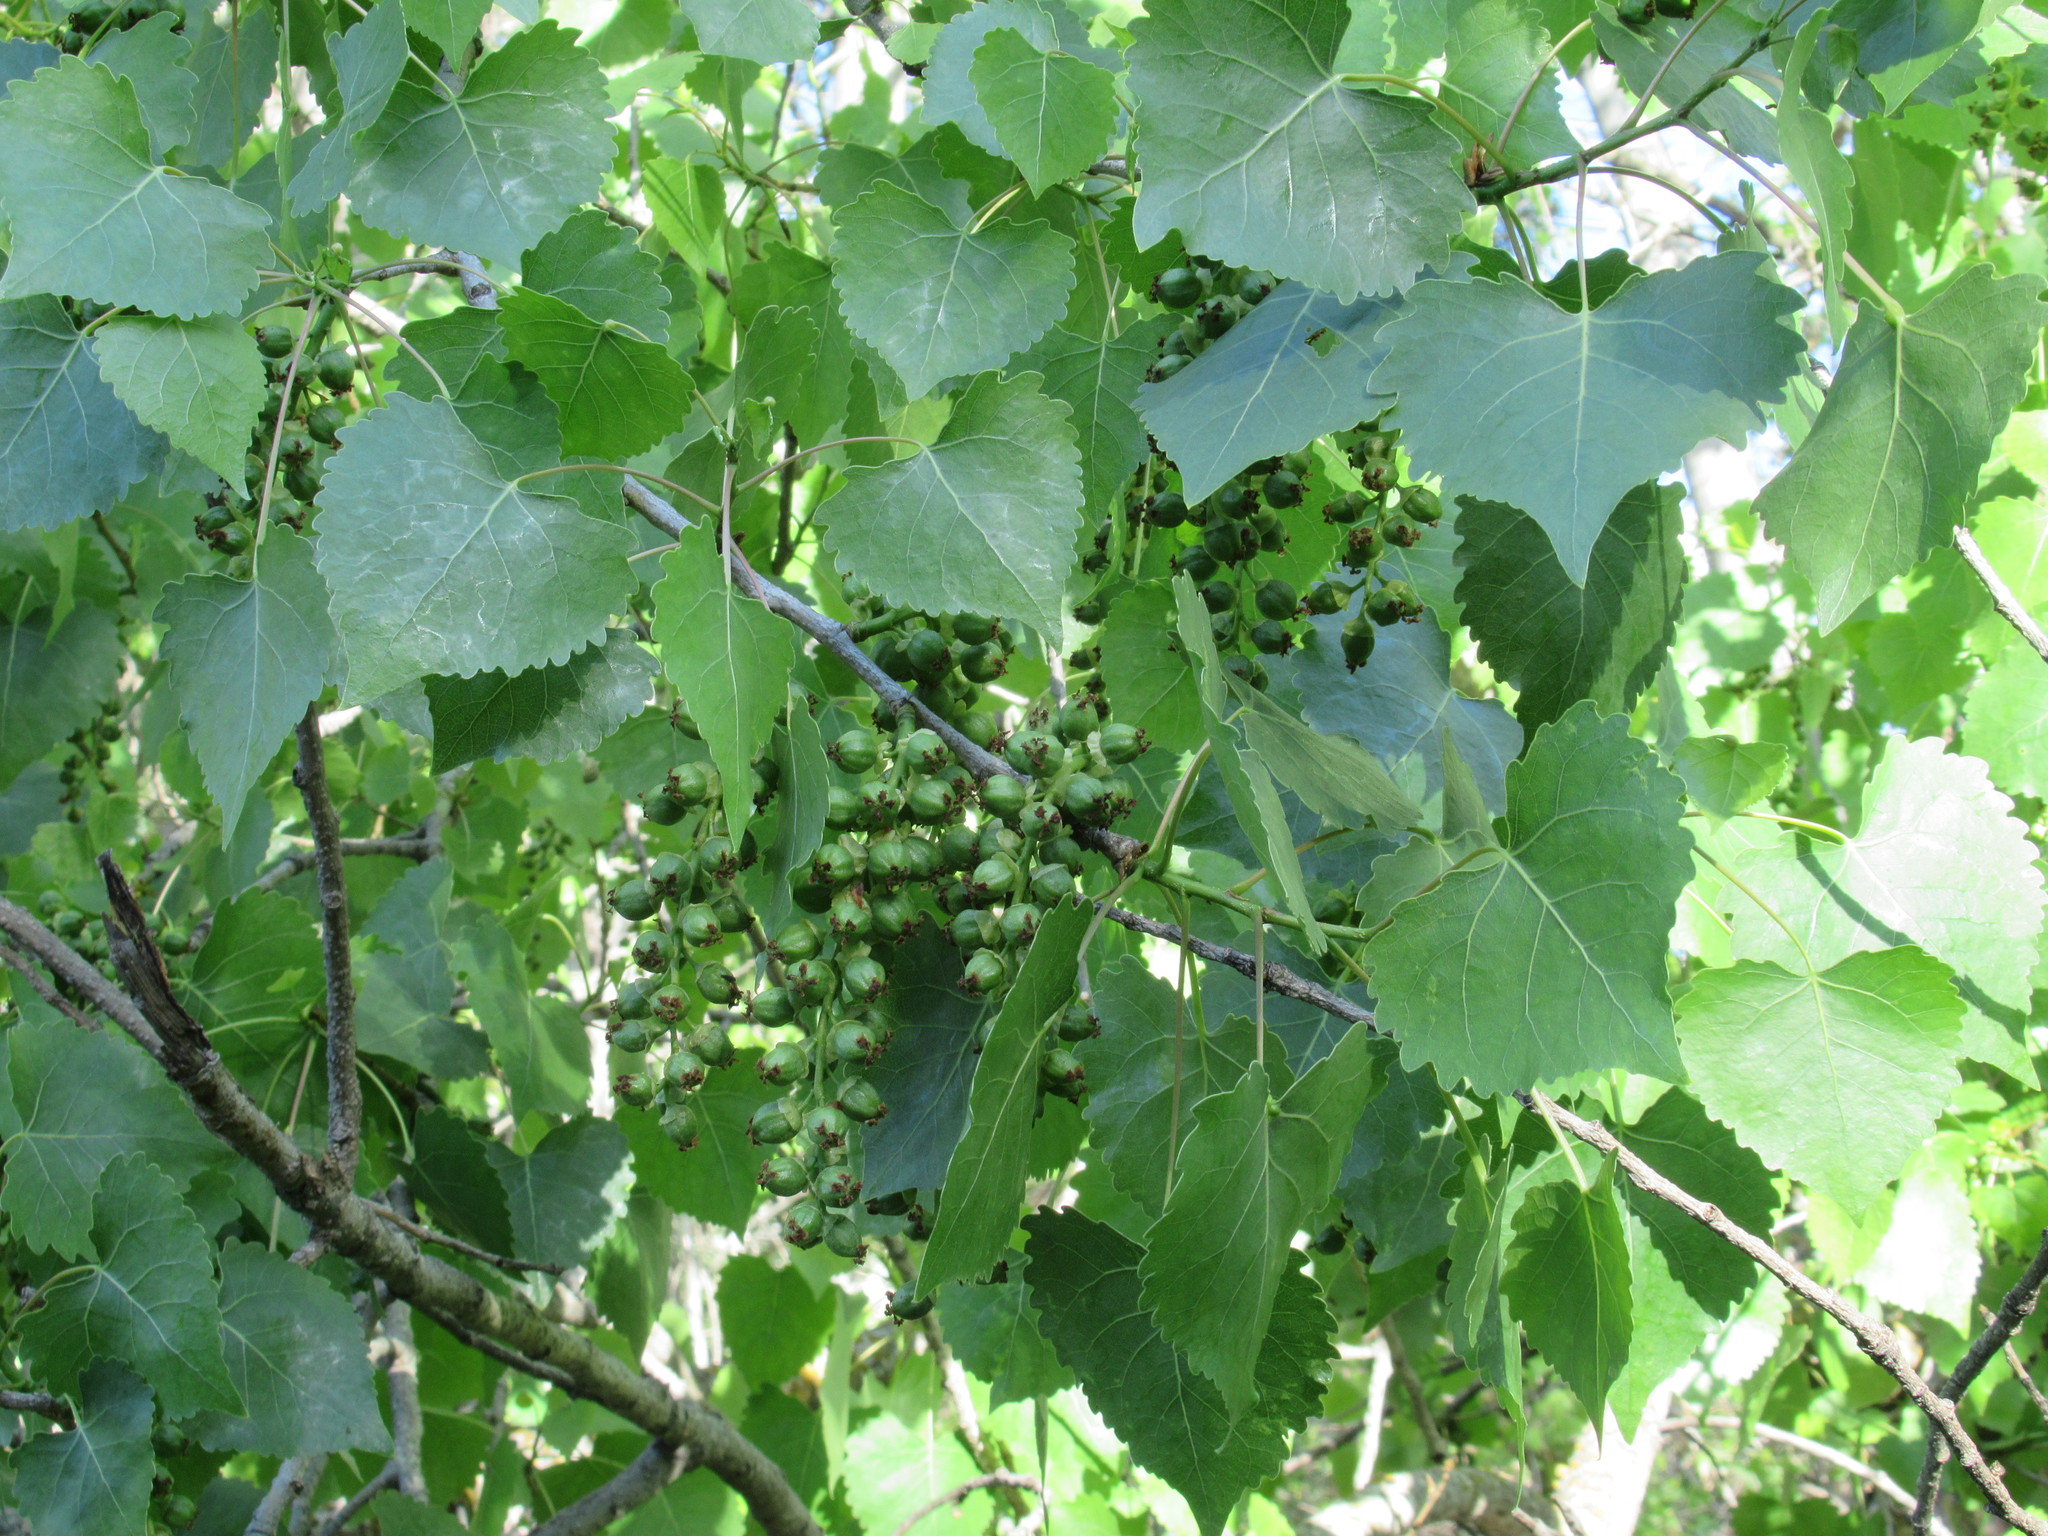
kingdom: Plantae
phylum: Tracheophyta
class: Magnoliopsida
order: Malpighiales
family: Salicaceae
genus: Populus
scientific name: Populus fremontii
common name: Fremont's cottonwood
